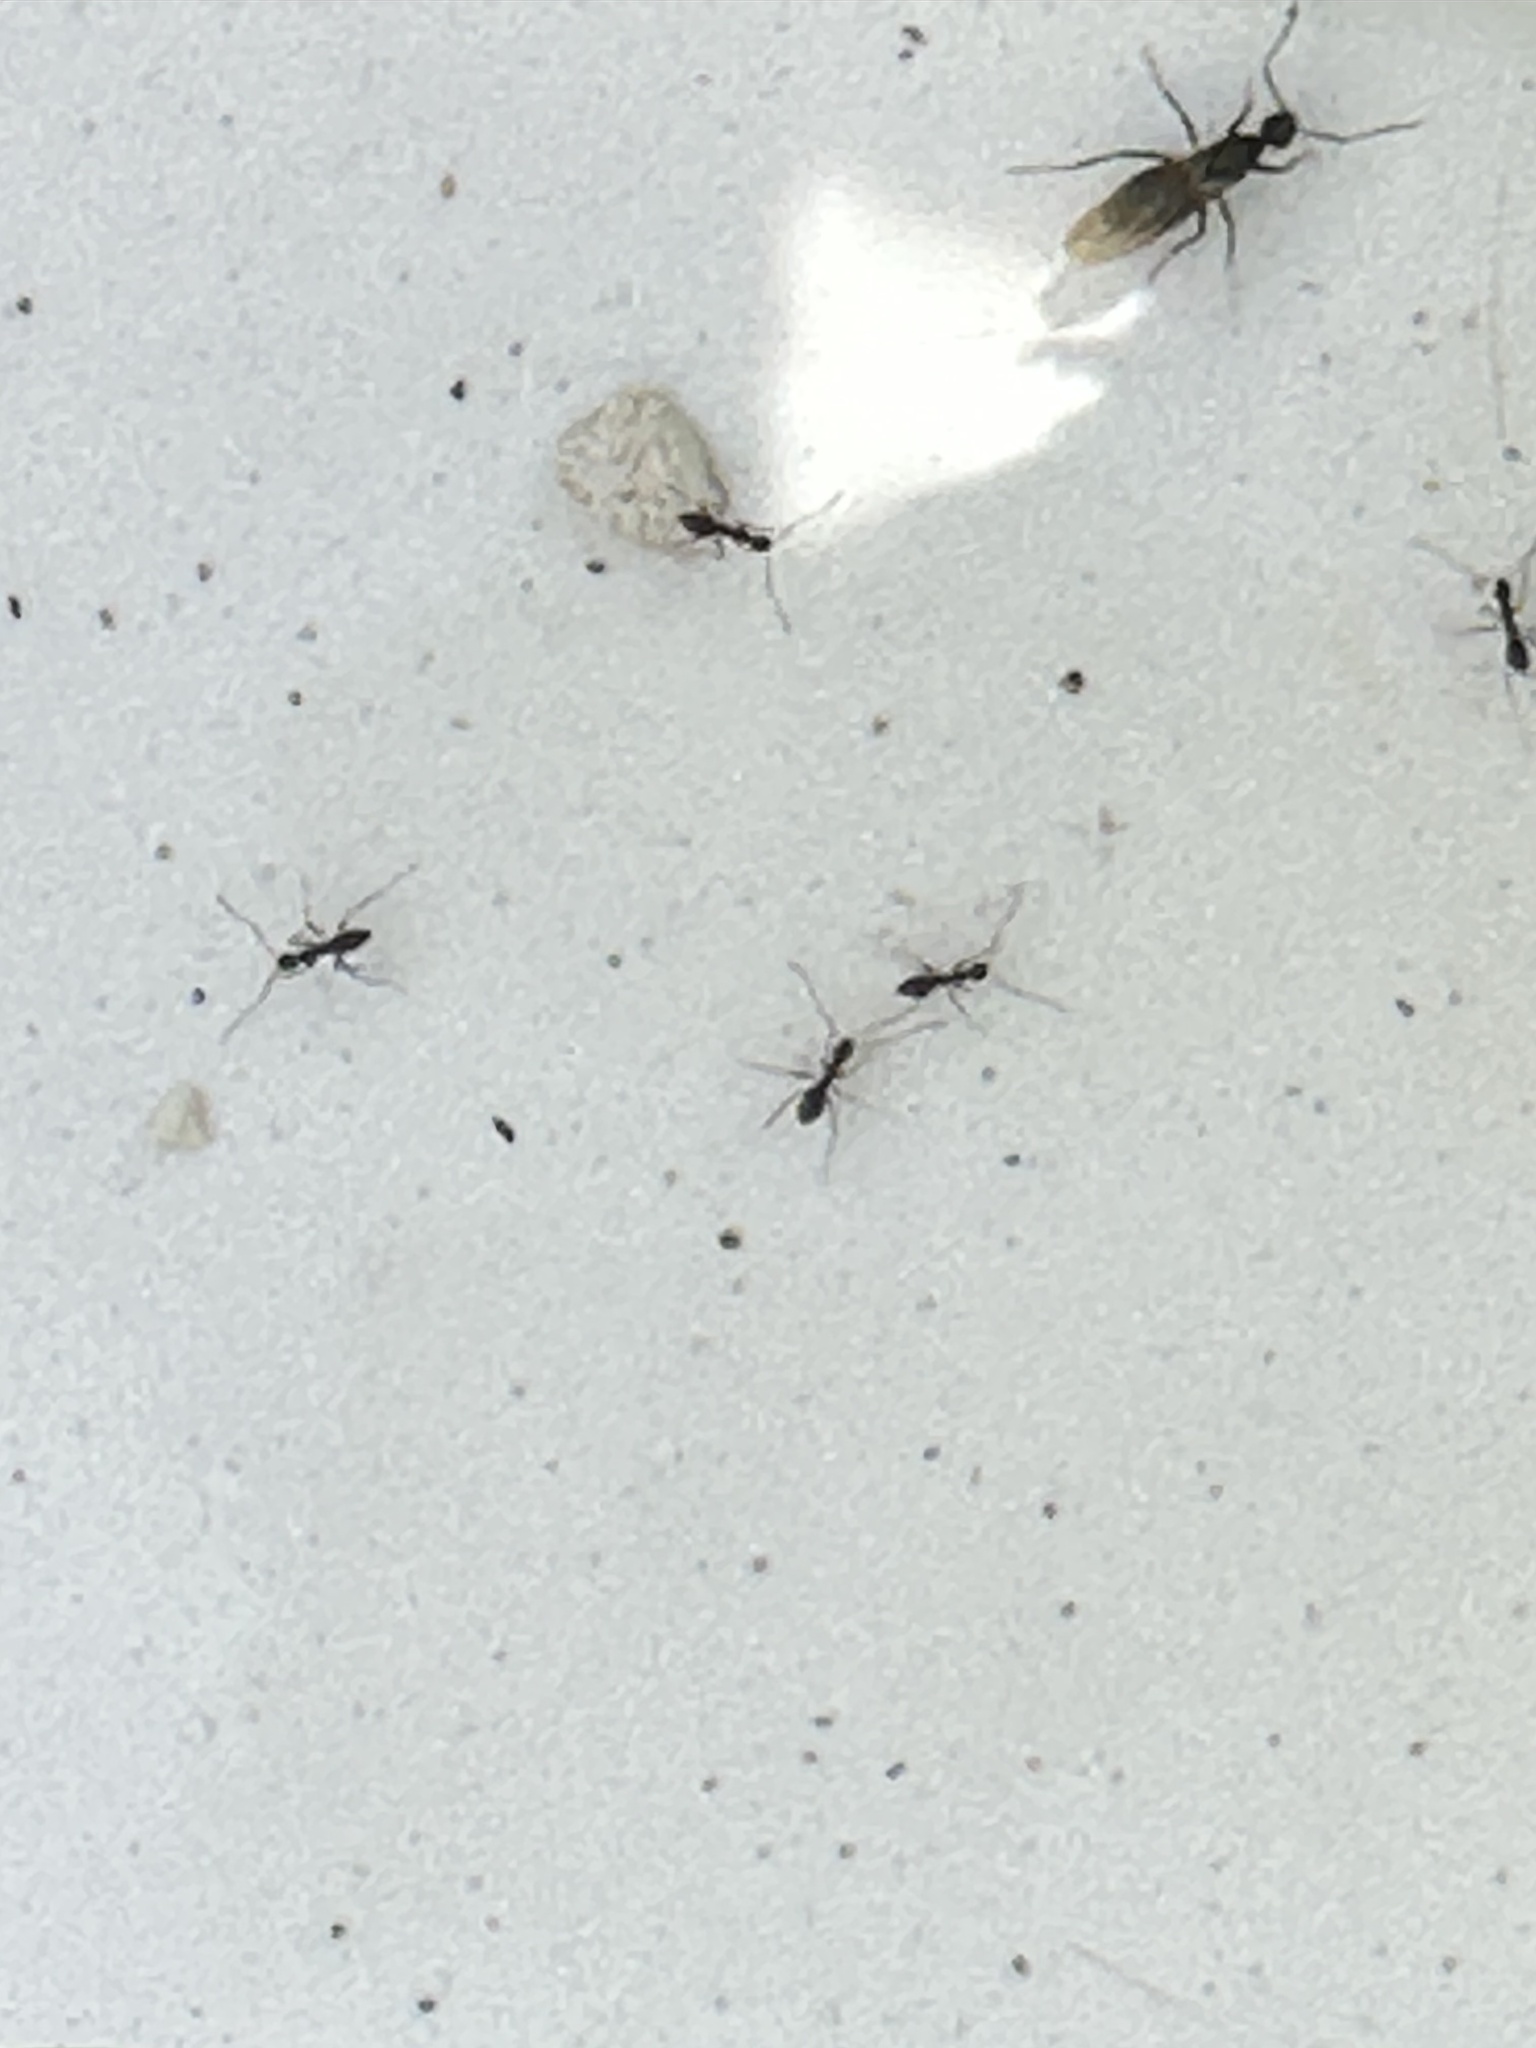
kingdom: Animalia
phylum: Arthropoda
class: Insecta
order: Hymenoptera
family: Formicidae
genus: Paratrechina
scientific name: Paratrechina longicornis
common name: Longhorned crazy ant
